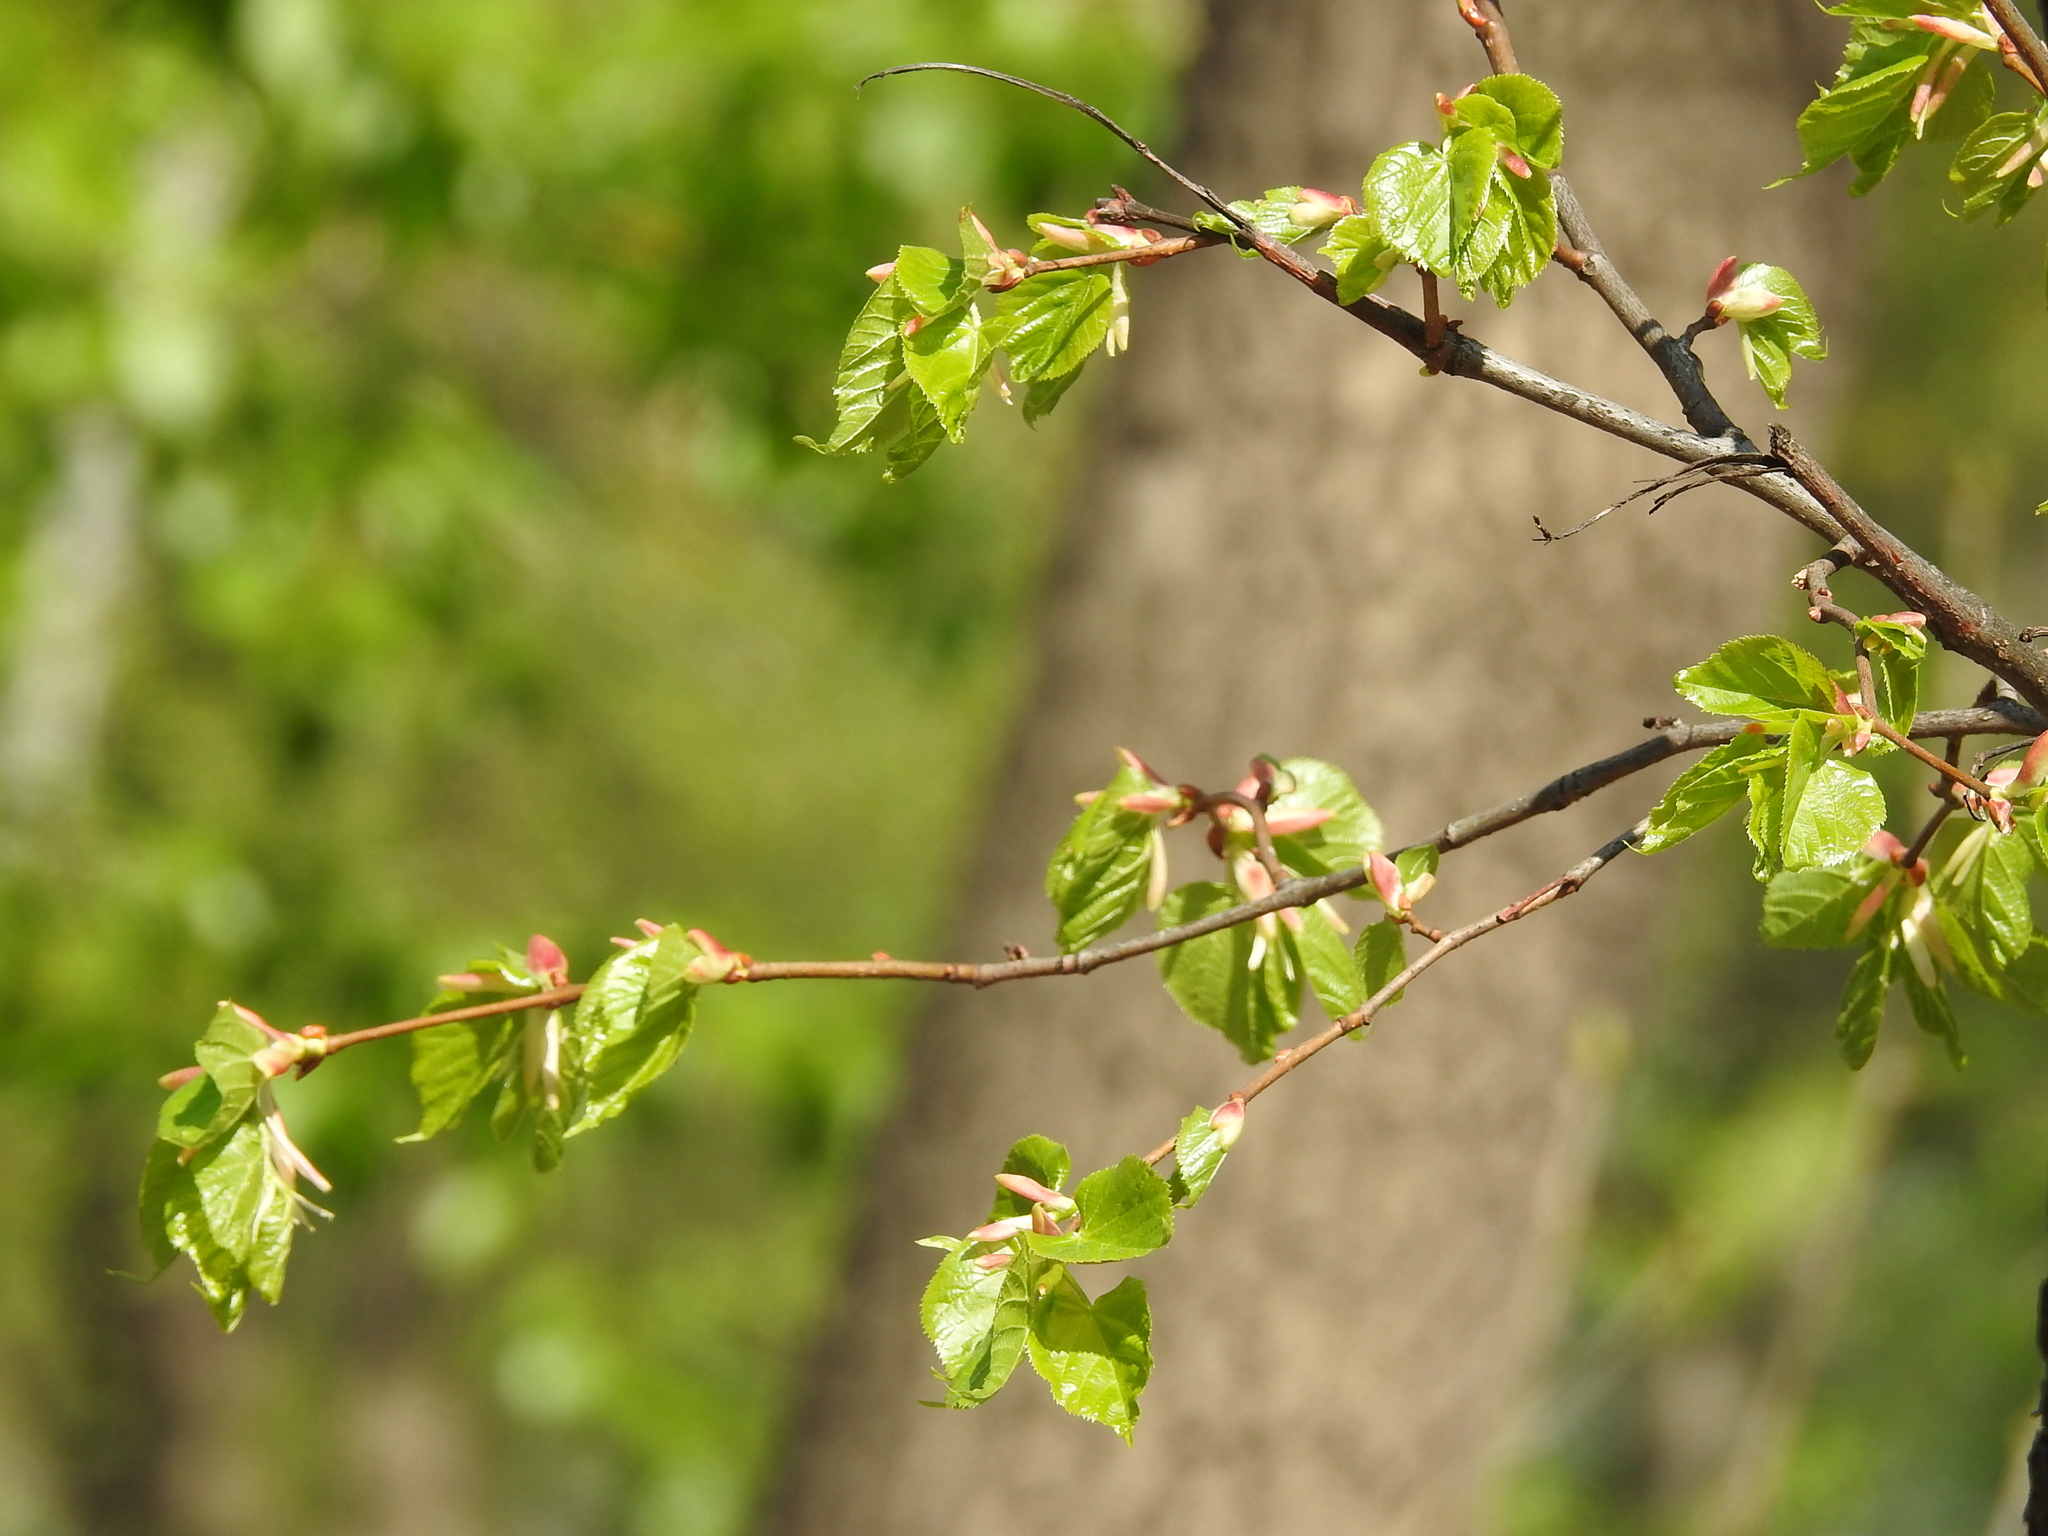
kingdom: Plantae
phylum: Tracheophyta
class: Magnoliopsida
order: Malvales
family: Malvaceae
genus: Tilia
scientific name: Tilia cordata
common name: Small-leaved lime
